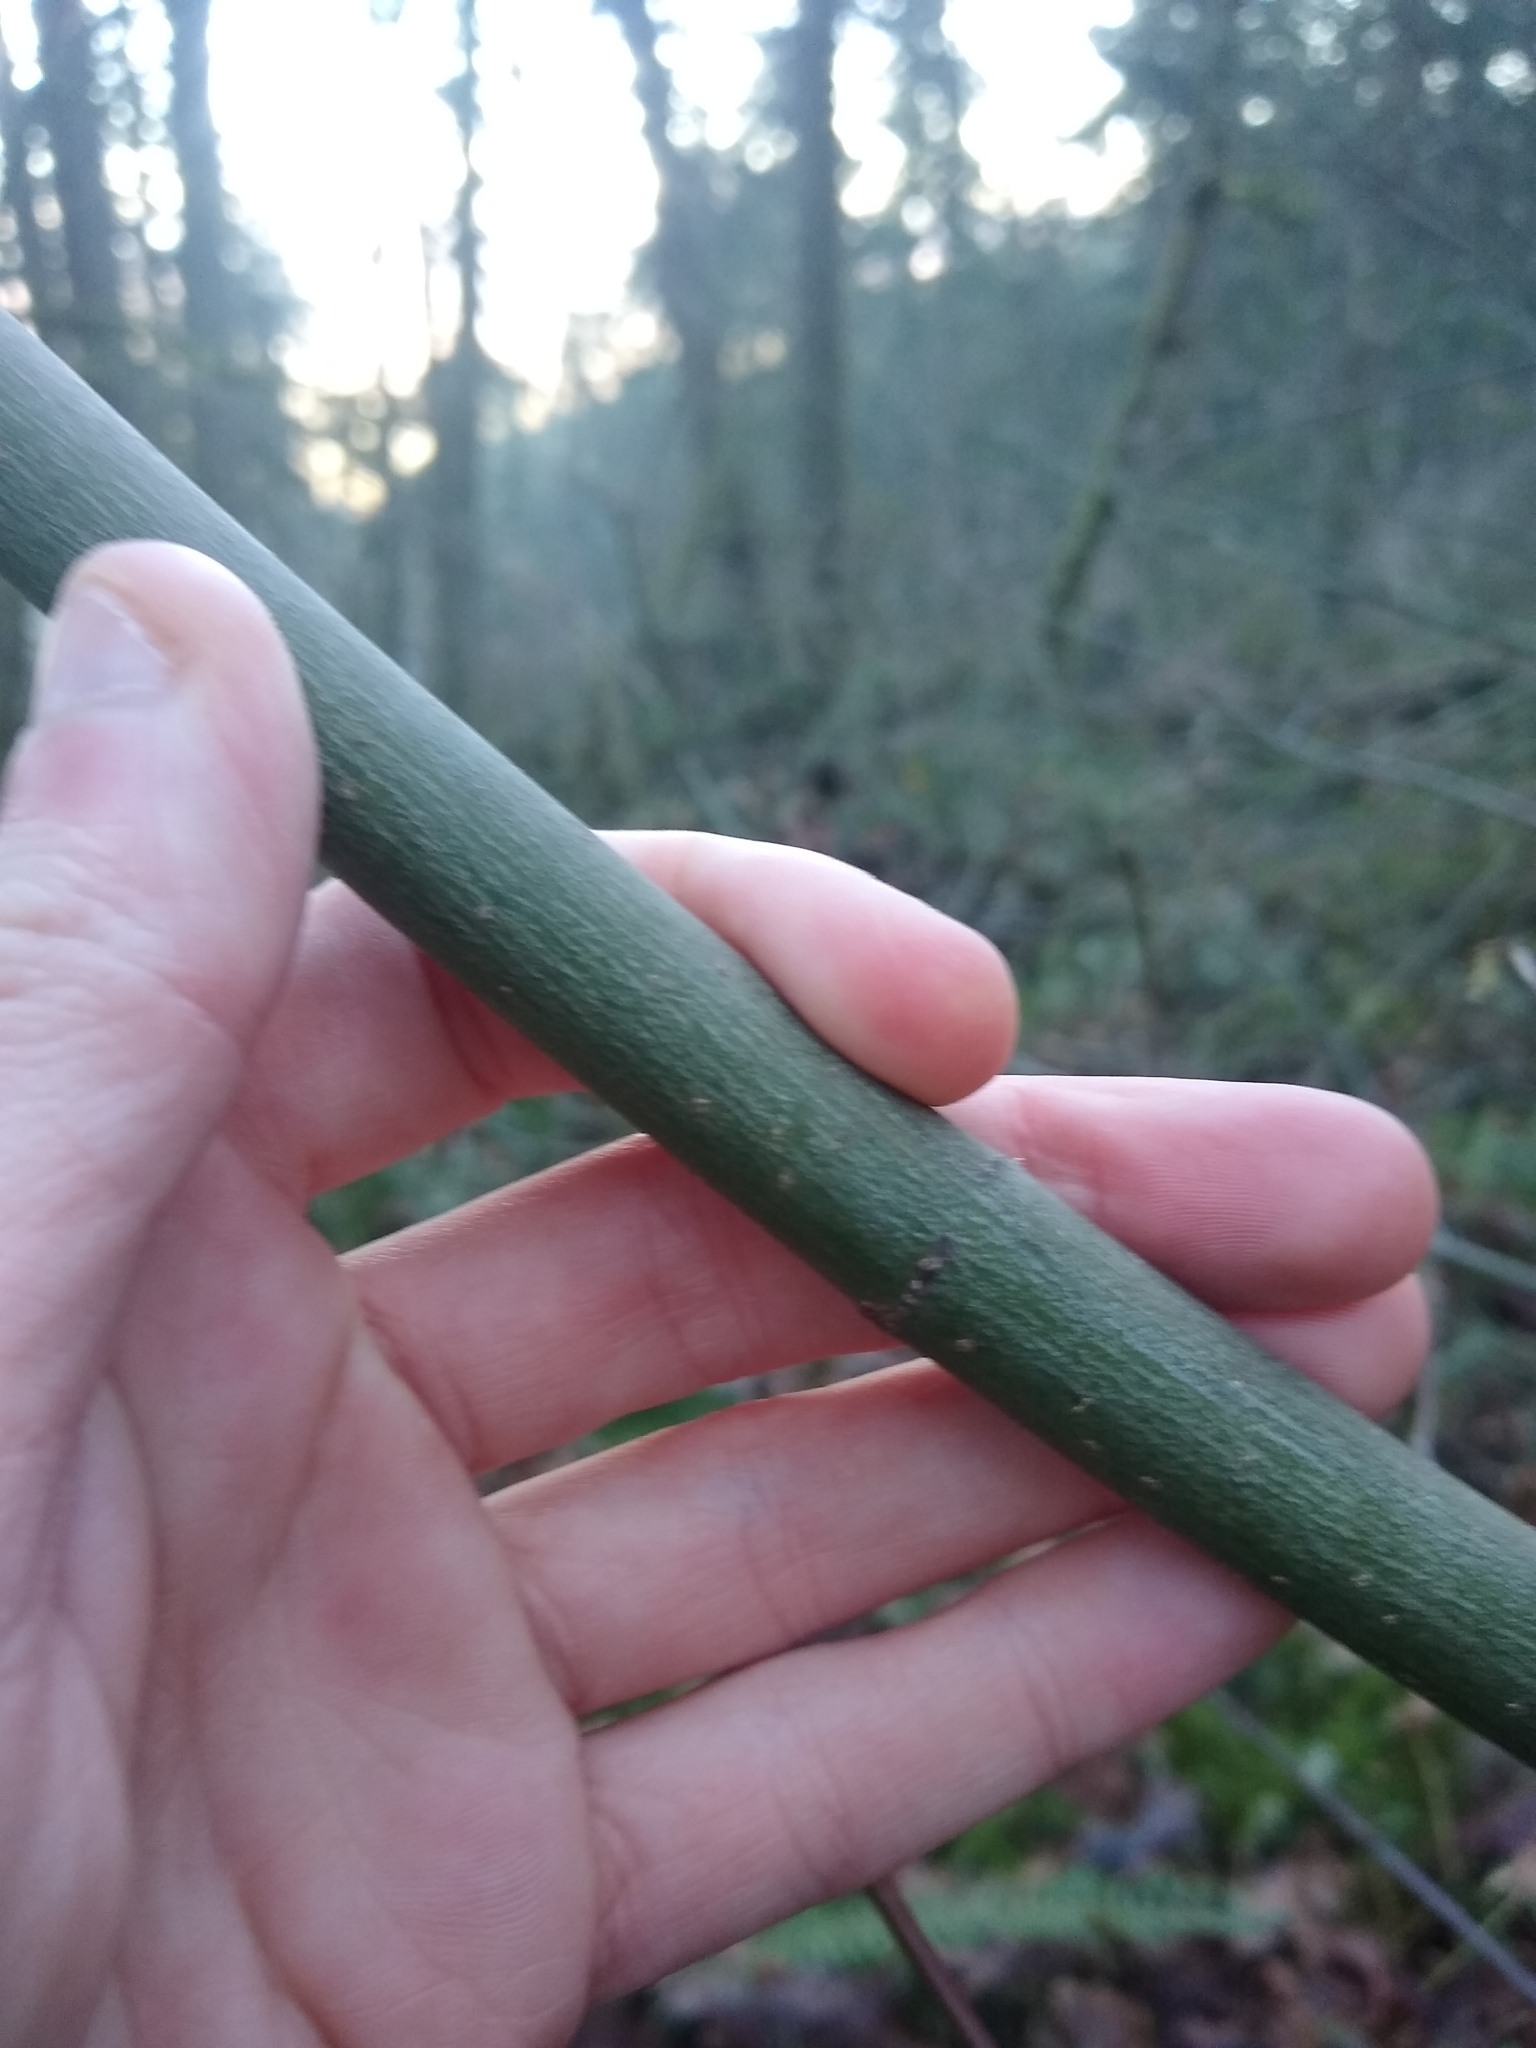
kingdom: Plantae
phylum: Tracheophyta
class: Magnoliopsida
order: Sapindales
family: Sapindaceae
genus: Acer
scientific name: Acer circinatum
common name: Vine maple
